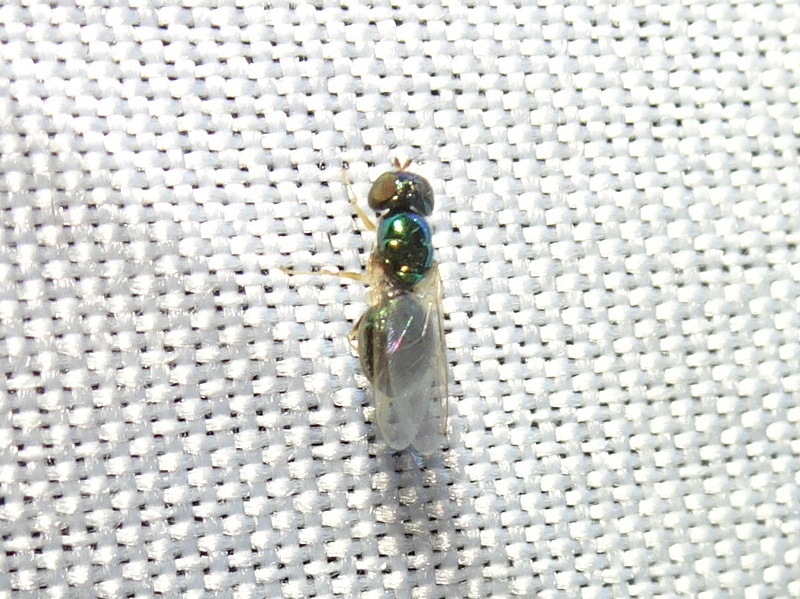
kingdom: Animalia
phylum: Arthropoda
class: Insecta
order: Diptera
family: Stratiomyidae
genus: Microchrysa
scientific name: Microchrysa flaviventris
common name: Soldier fly
